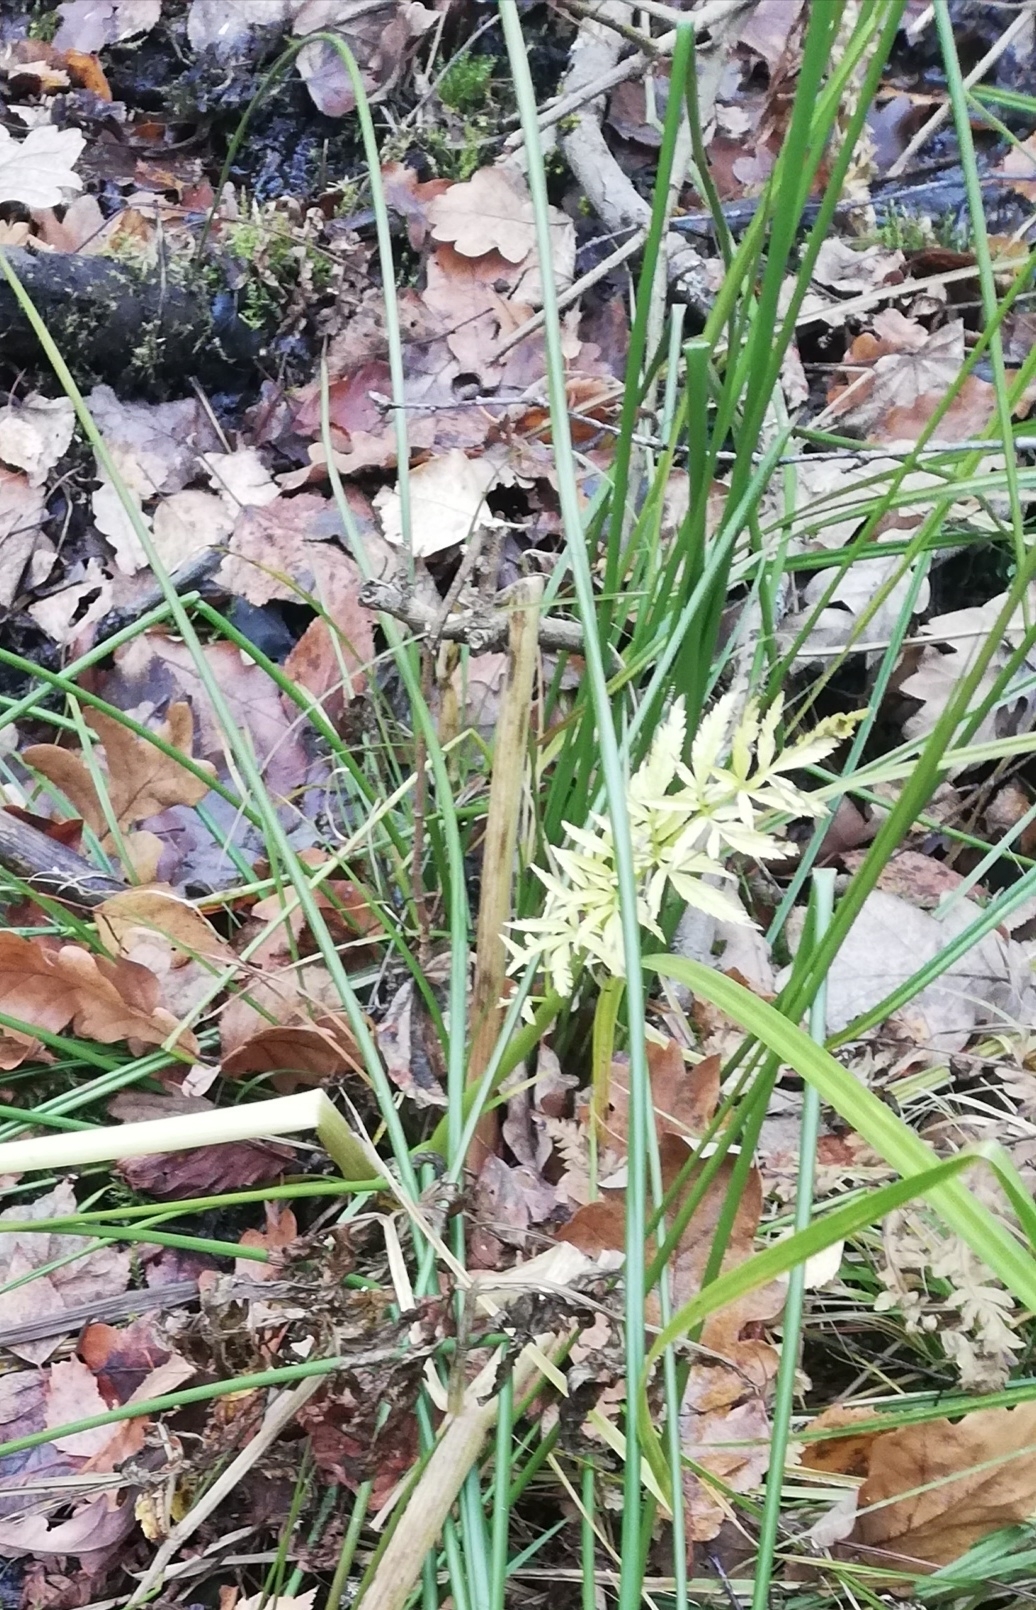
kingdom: Plantae
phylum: Tracheophyta
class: Magnoliopsida
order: Apiales
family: Apiaceae
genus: Cicuta
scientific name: Cicuta virosa
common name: Cowbane
